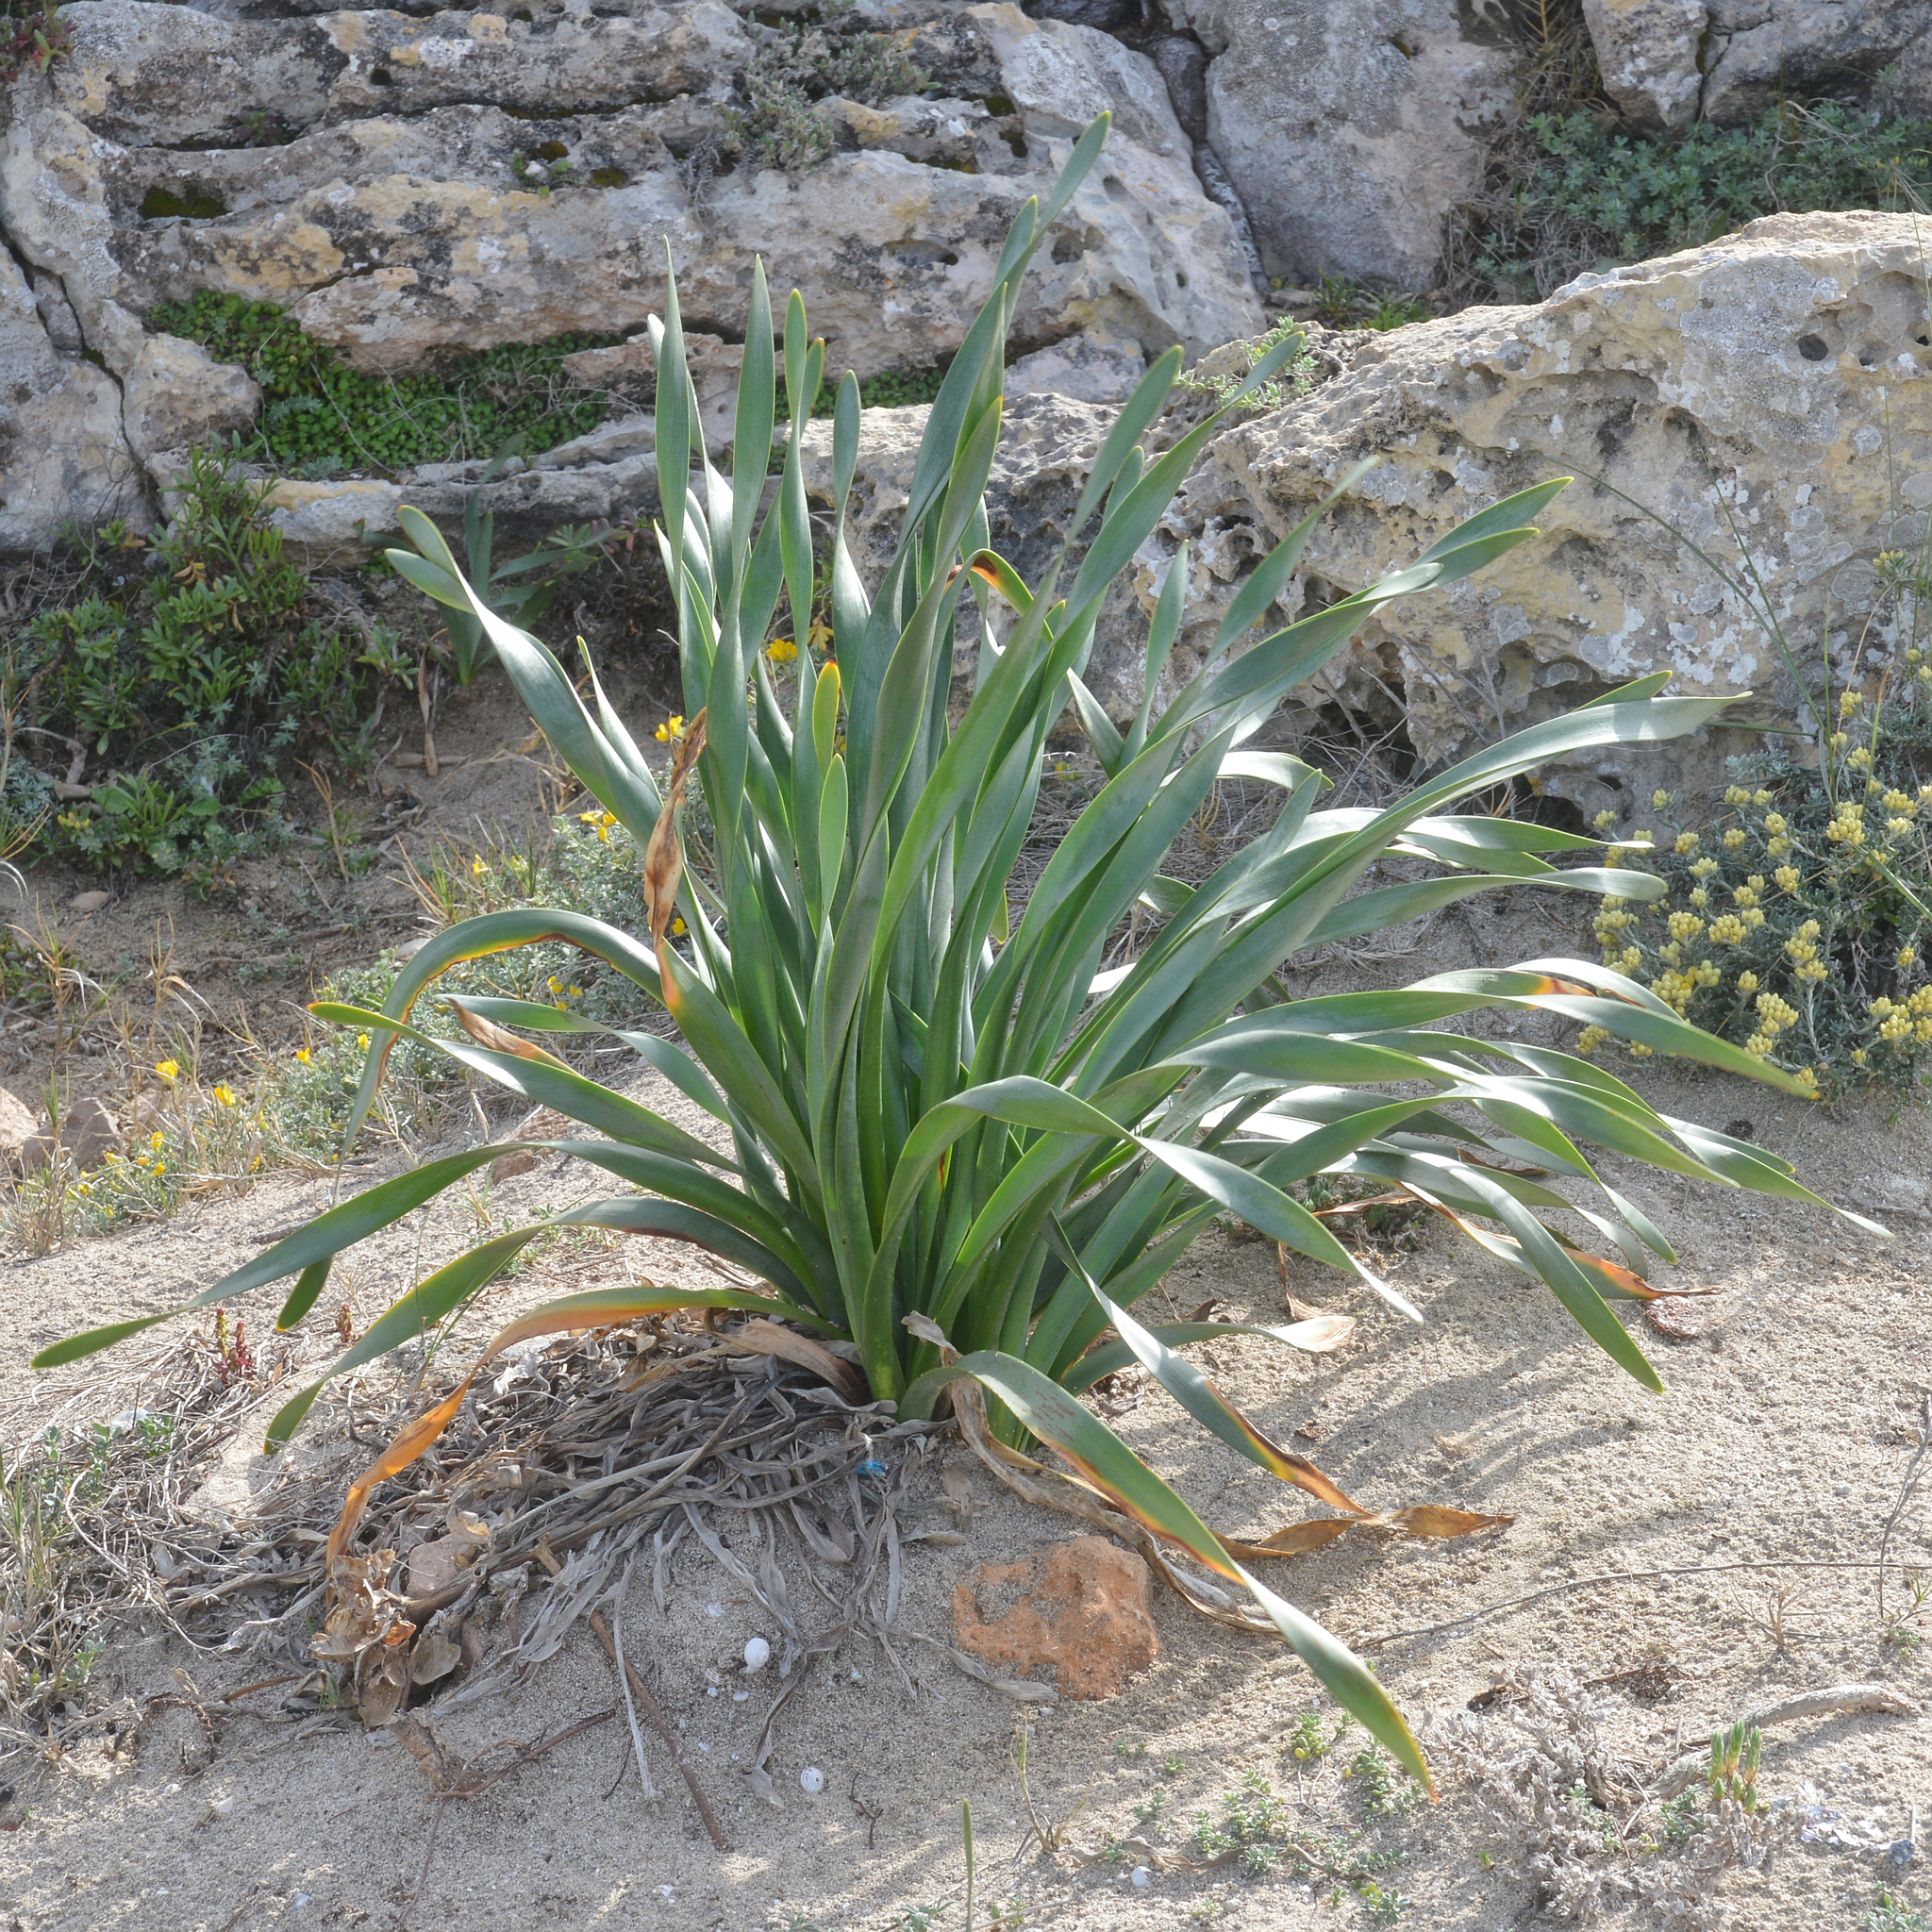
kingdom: Plantae
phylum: Tracheophyta
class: Liliopsida
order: Asparagales
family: Amaryllidaceae
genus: Pancratium
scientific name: Pancratium maritimum
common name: Sea-daffodil
